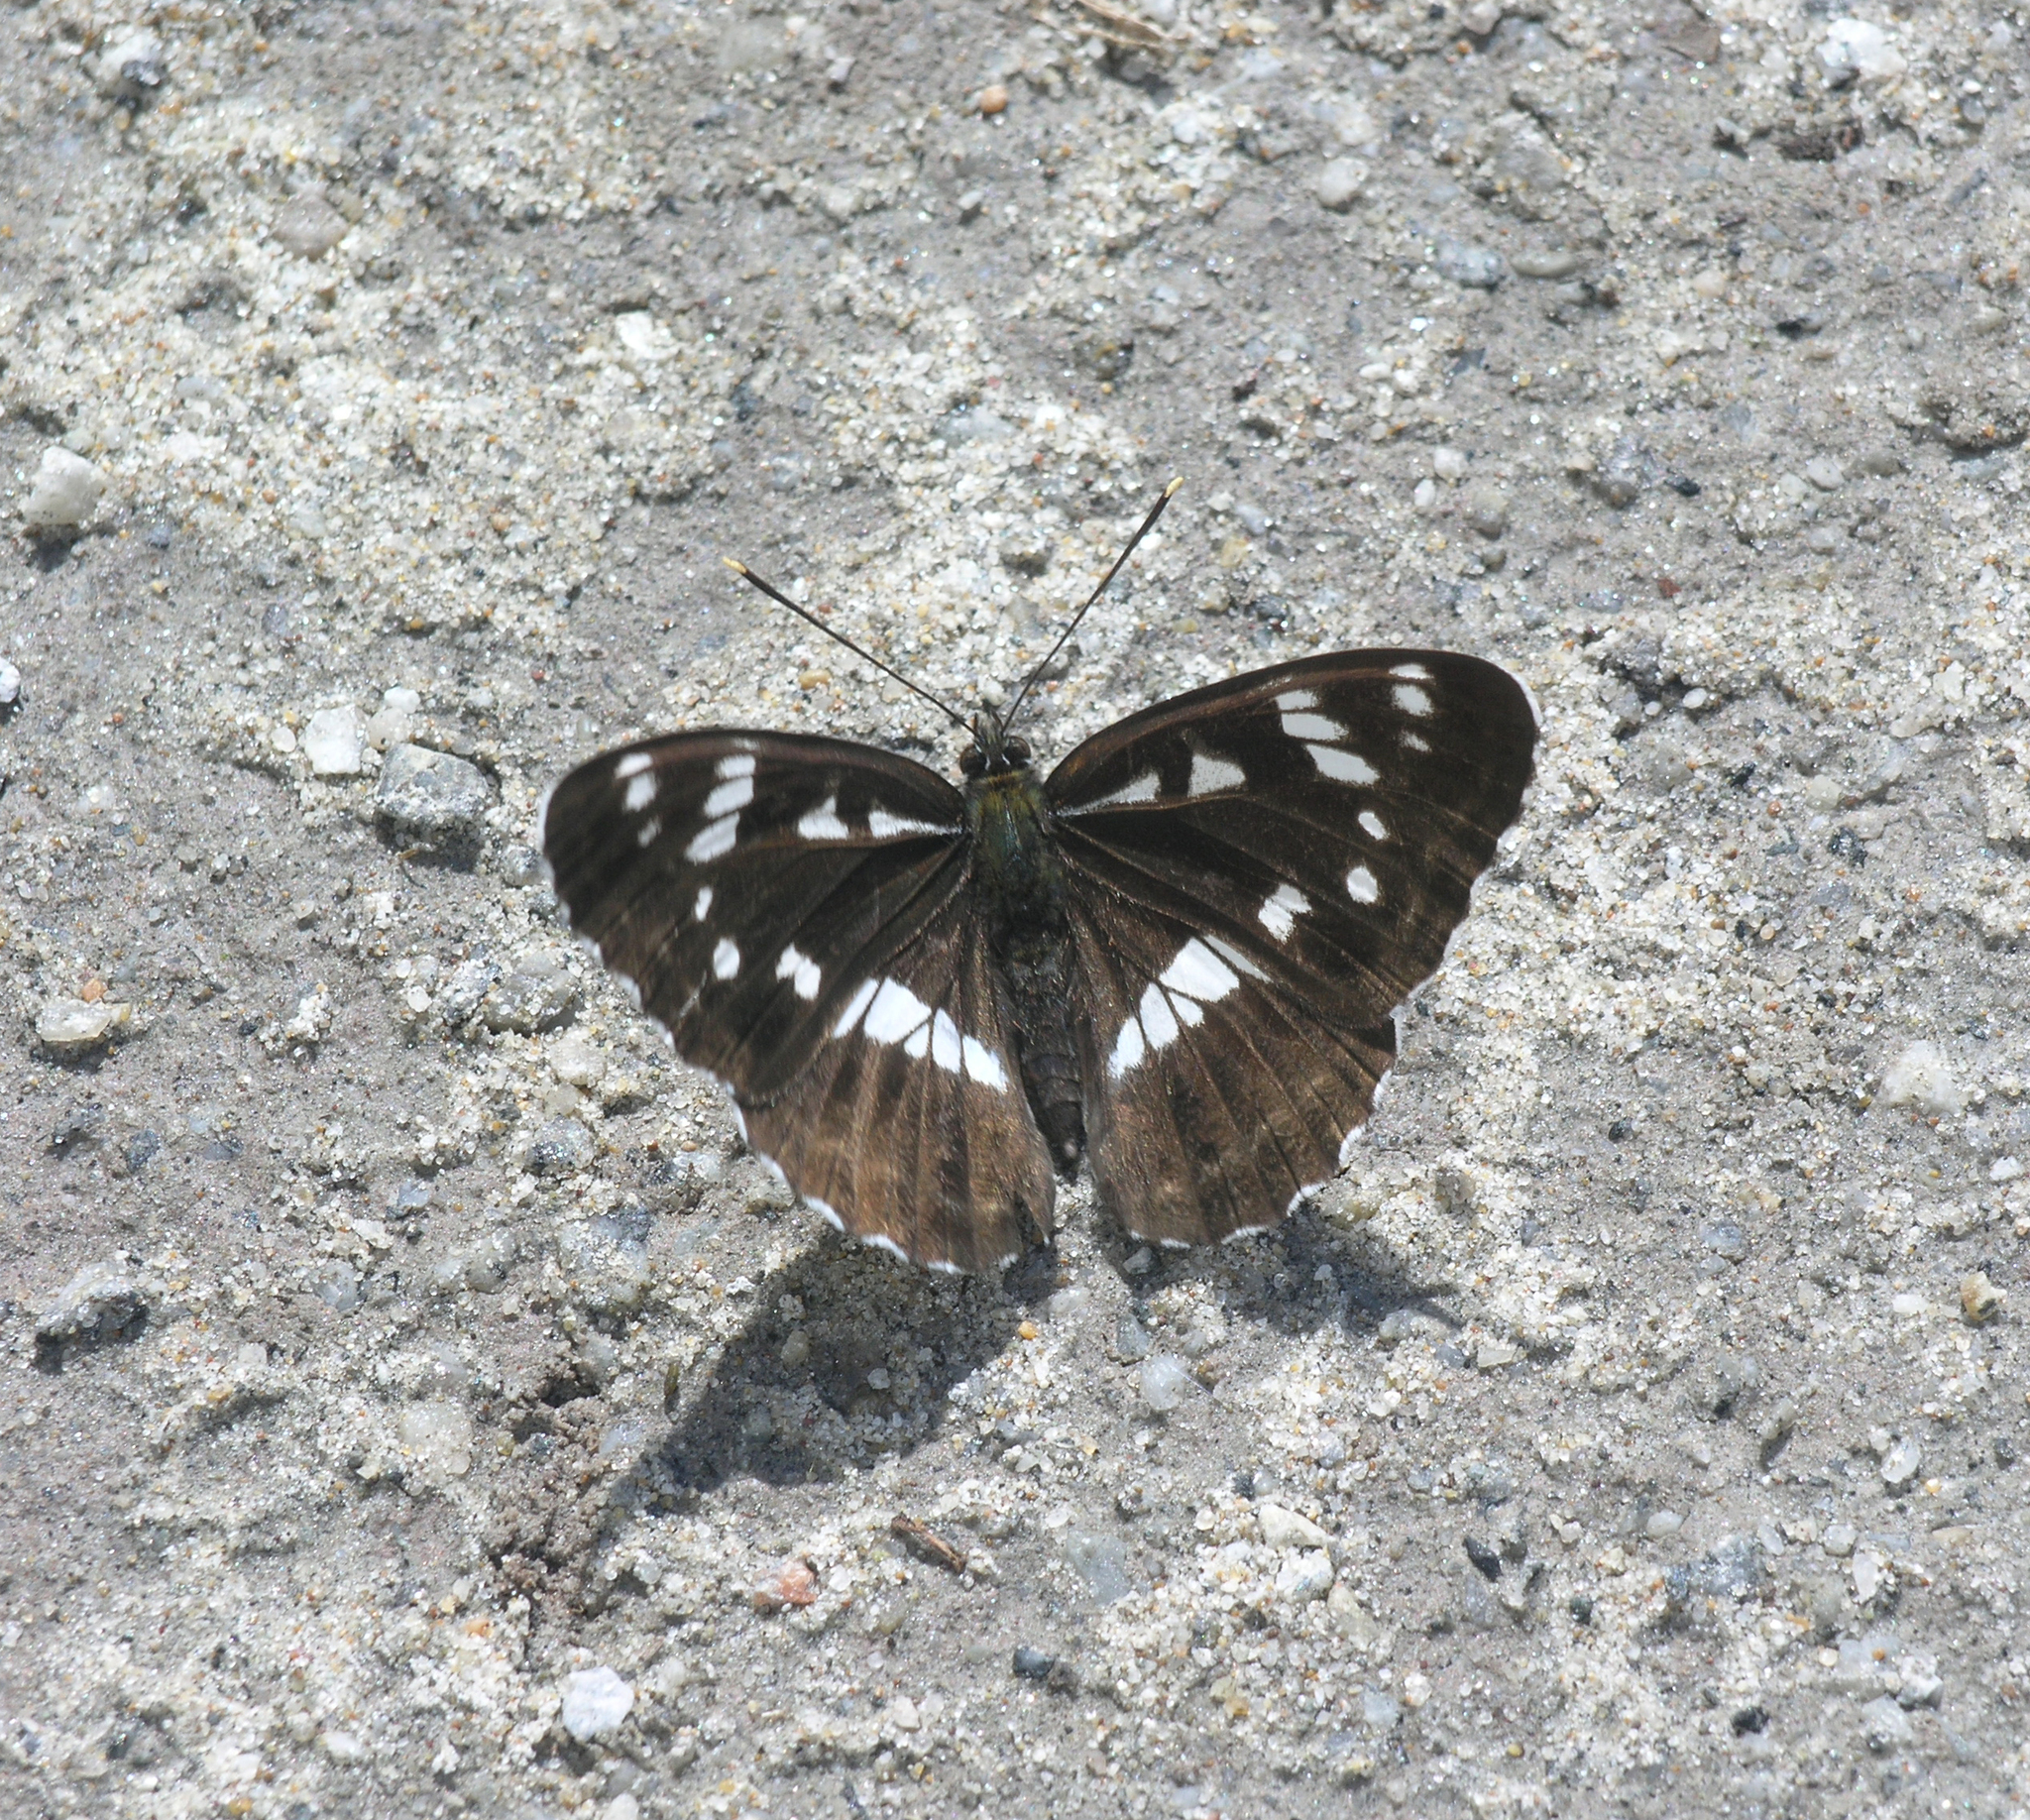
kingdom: Animalia
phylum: Arthropoda
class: Insecta
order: Lepidoptera
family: Nymphalidae
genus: Limenitis
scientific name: Limenitis helmanni
